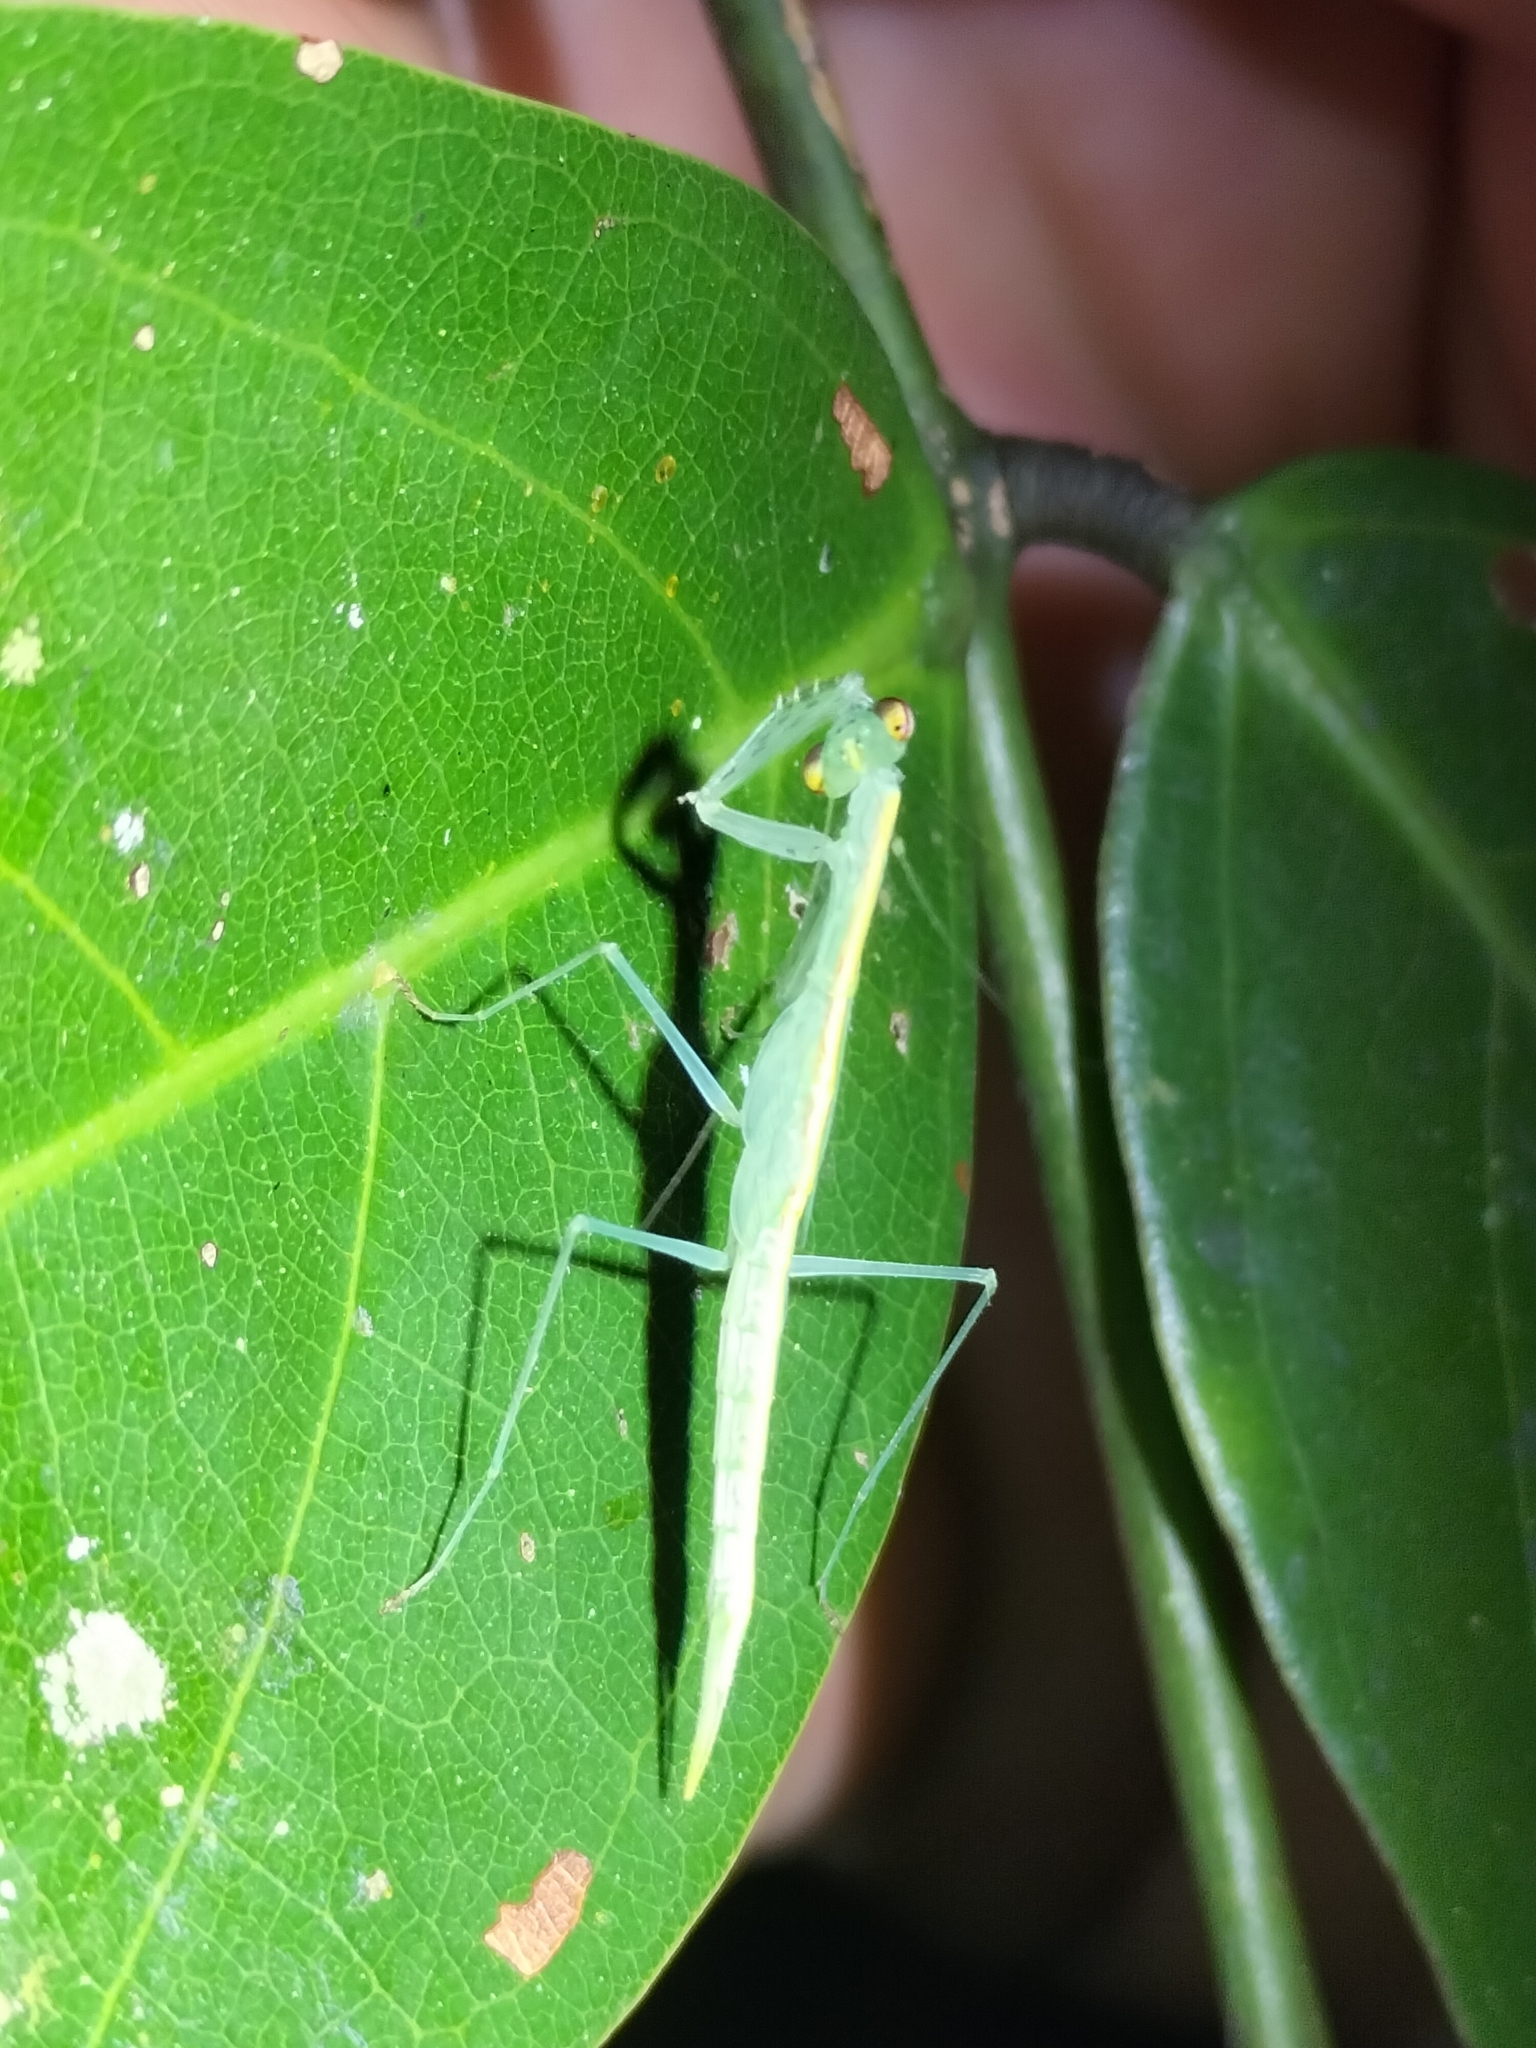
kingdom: Animalia
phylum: Arthropoda
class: Insecta
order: Mantodea
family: Nanomantidae
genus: Kongobatha
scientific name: Kongobatha diademata
